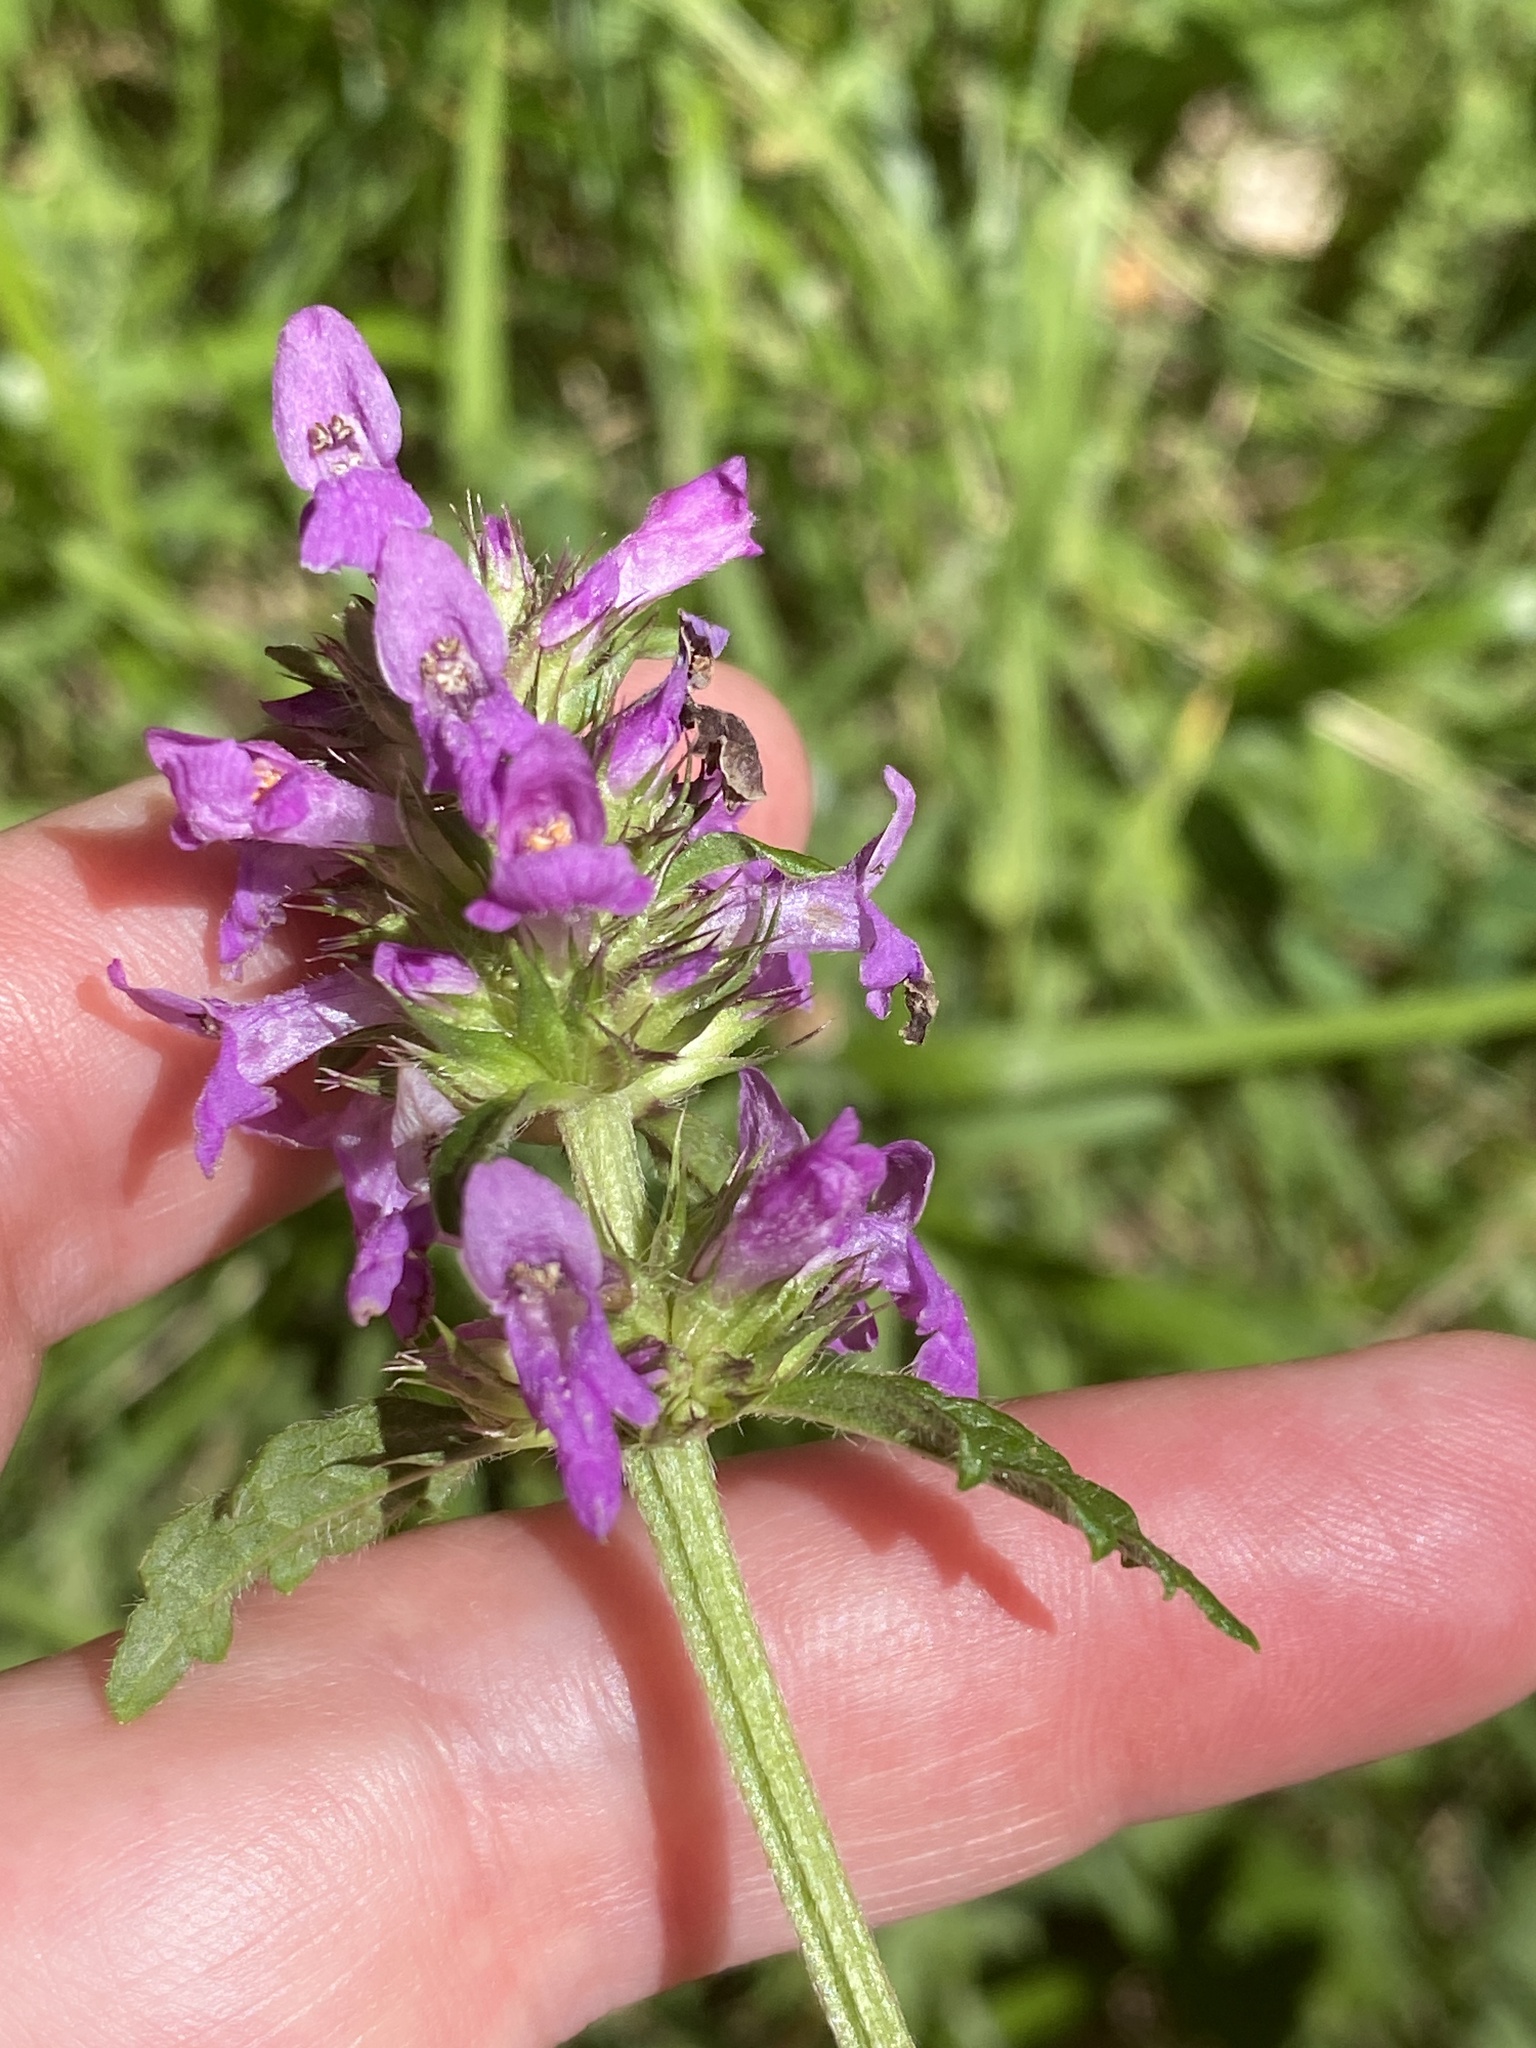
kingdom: Plantae
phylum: Tracheophyta
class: Magnoliopsida
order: Lamiales
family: Lamiaceae
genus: Betonica
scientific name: Betonica officinalis
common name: Bishop's-wort
